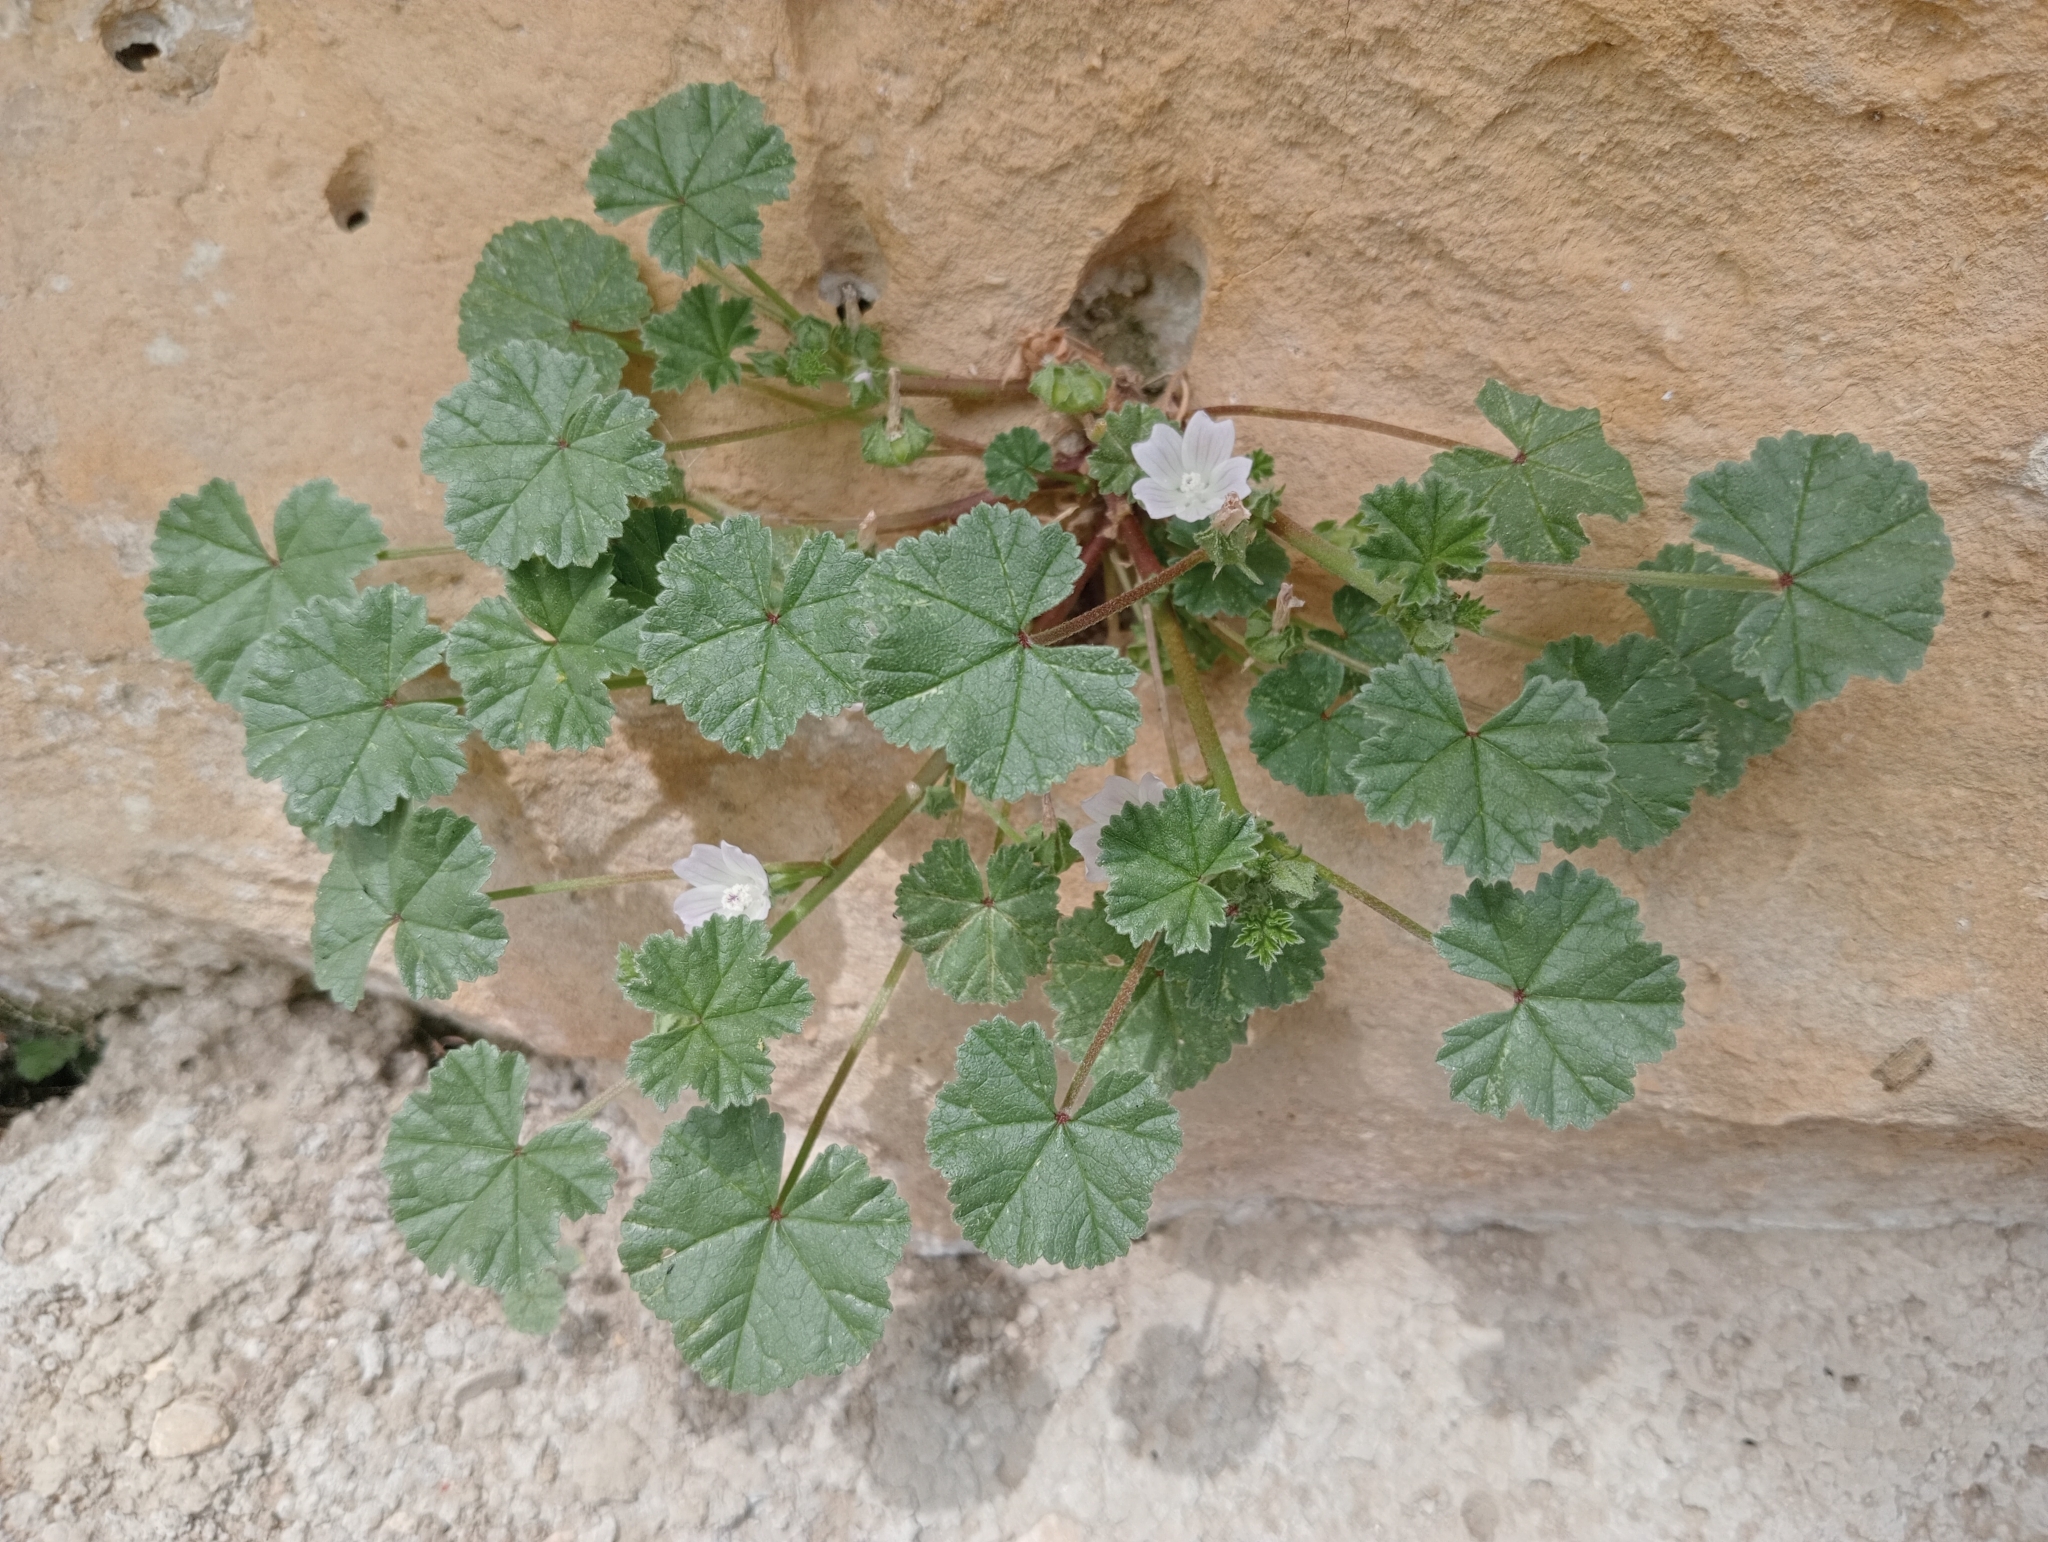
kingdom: Plantae
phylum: Tracheophyta
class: Magnoliopsida
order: Malvales
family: Malvaceae
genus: Malva
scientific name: Malva parviflora
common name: Least mallow
